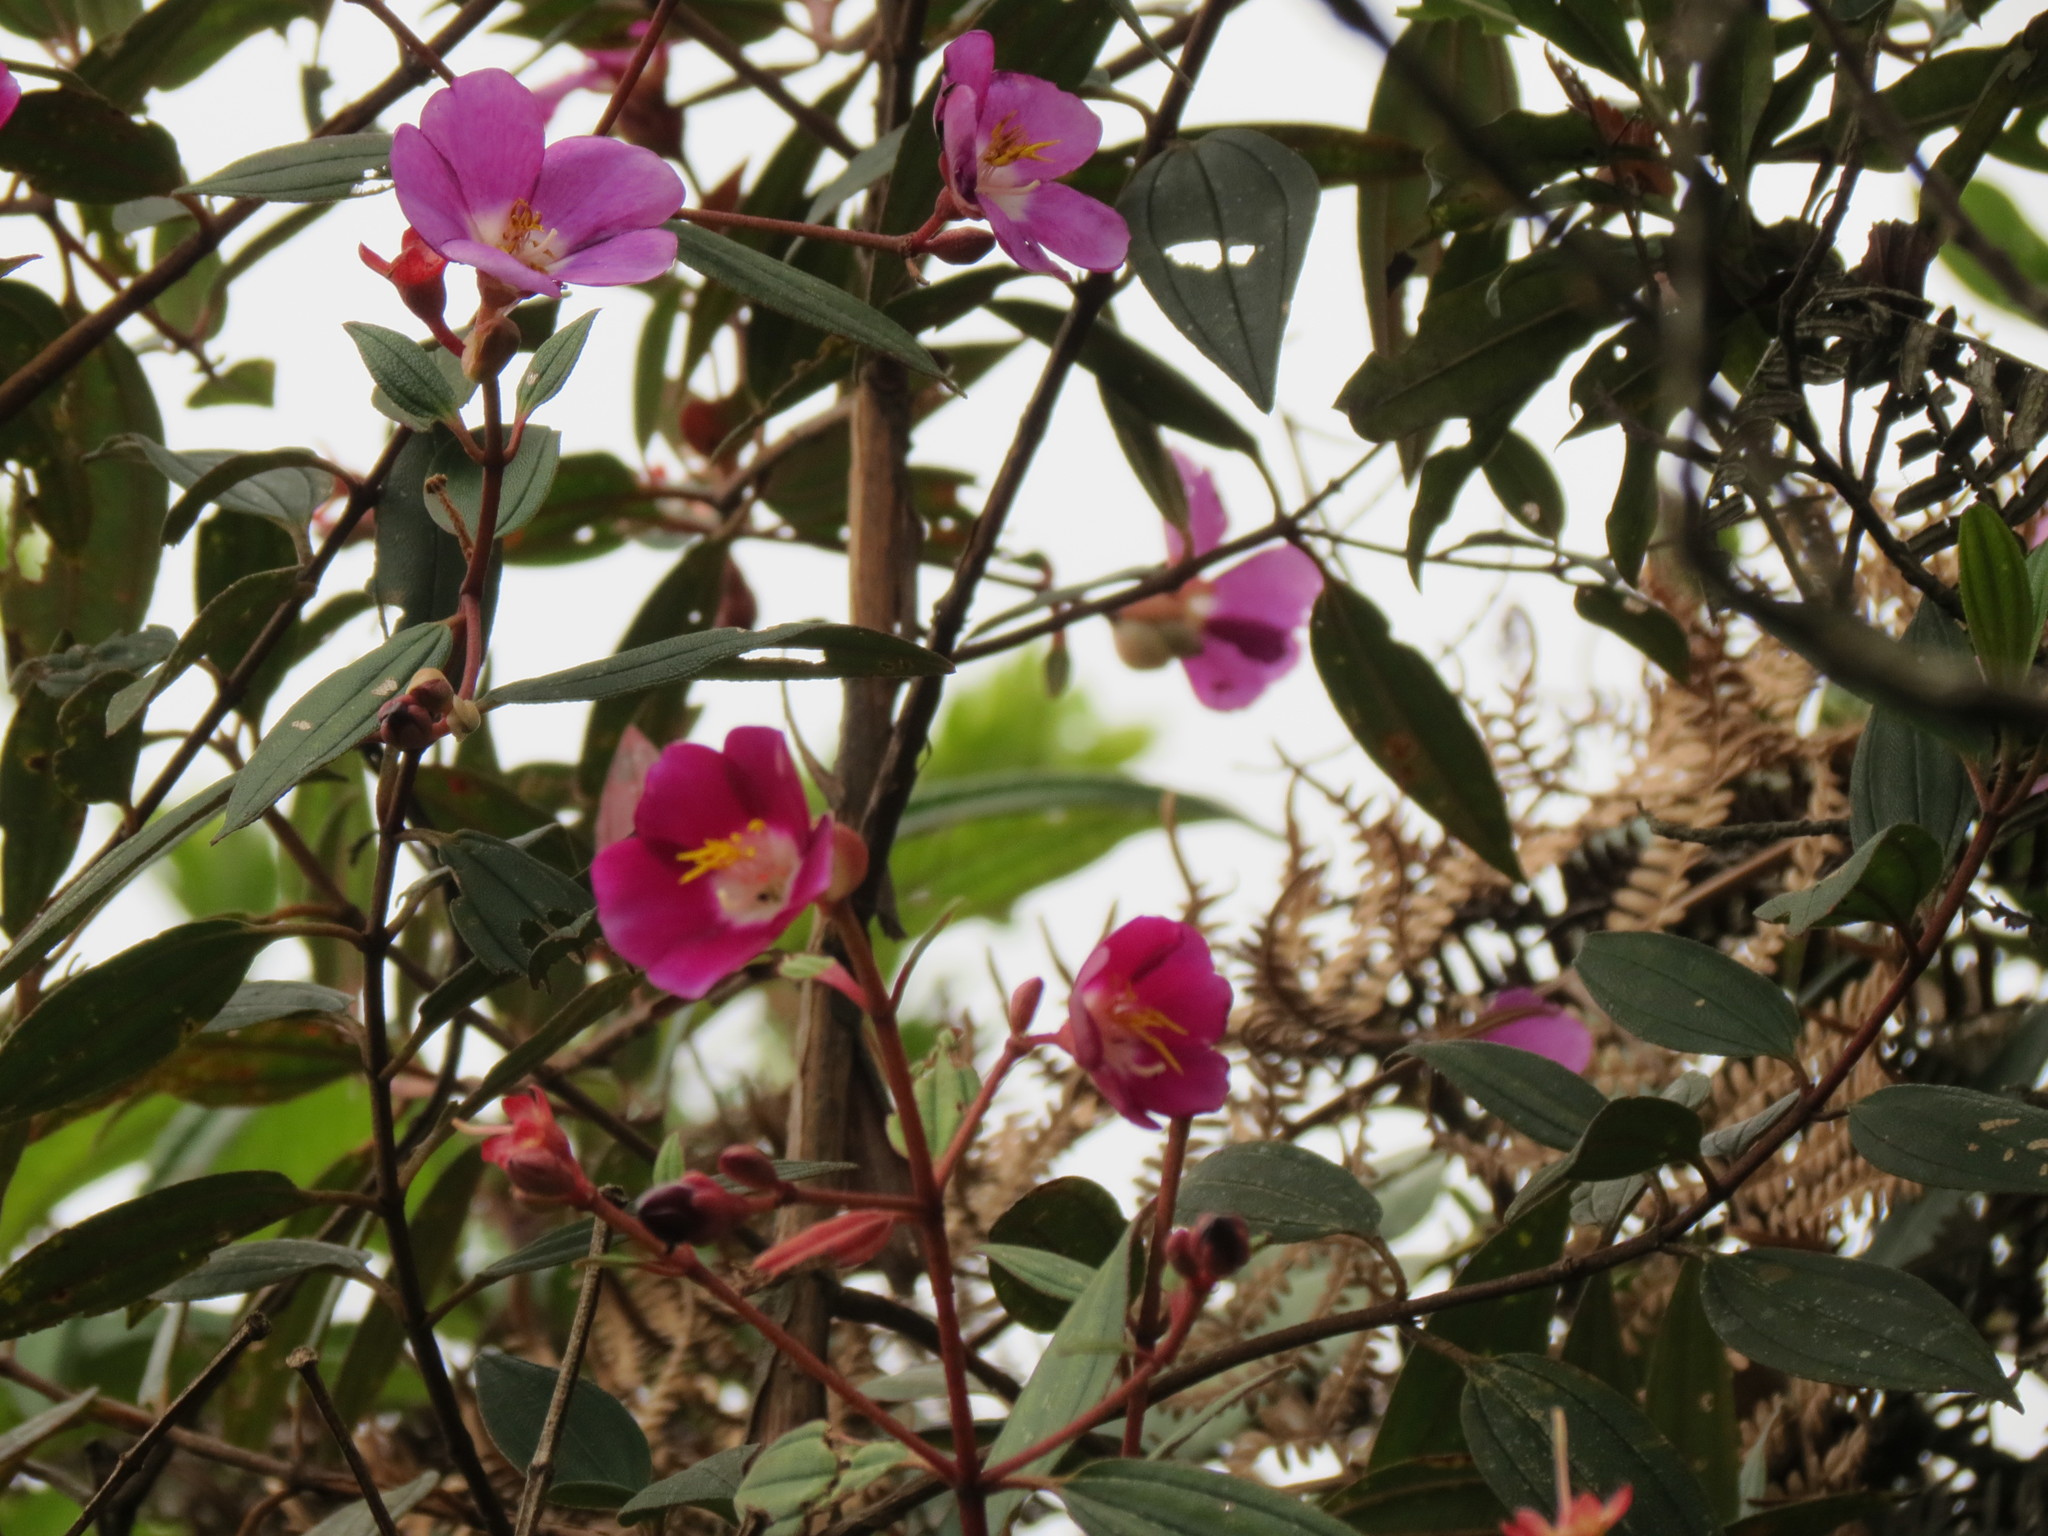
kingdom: Plantae
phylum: Tracheophyta
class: Magnoliopsida
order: Myrtales
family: Melastomataceae
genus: Andesanthus
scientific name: Andesanthus lepidotus
